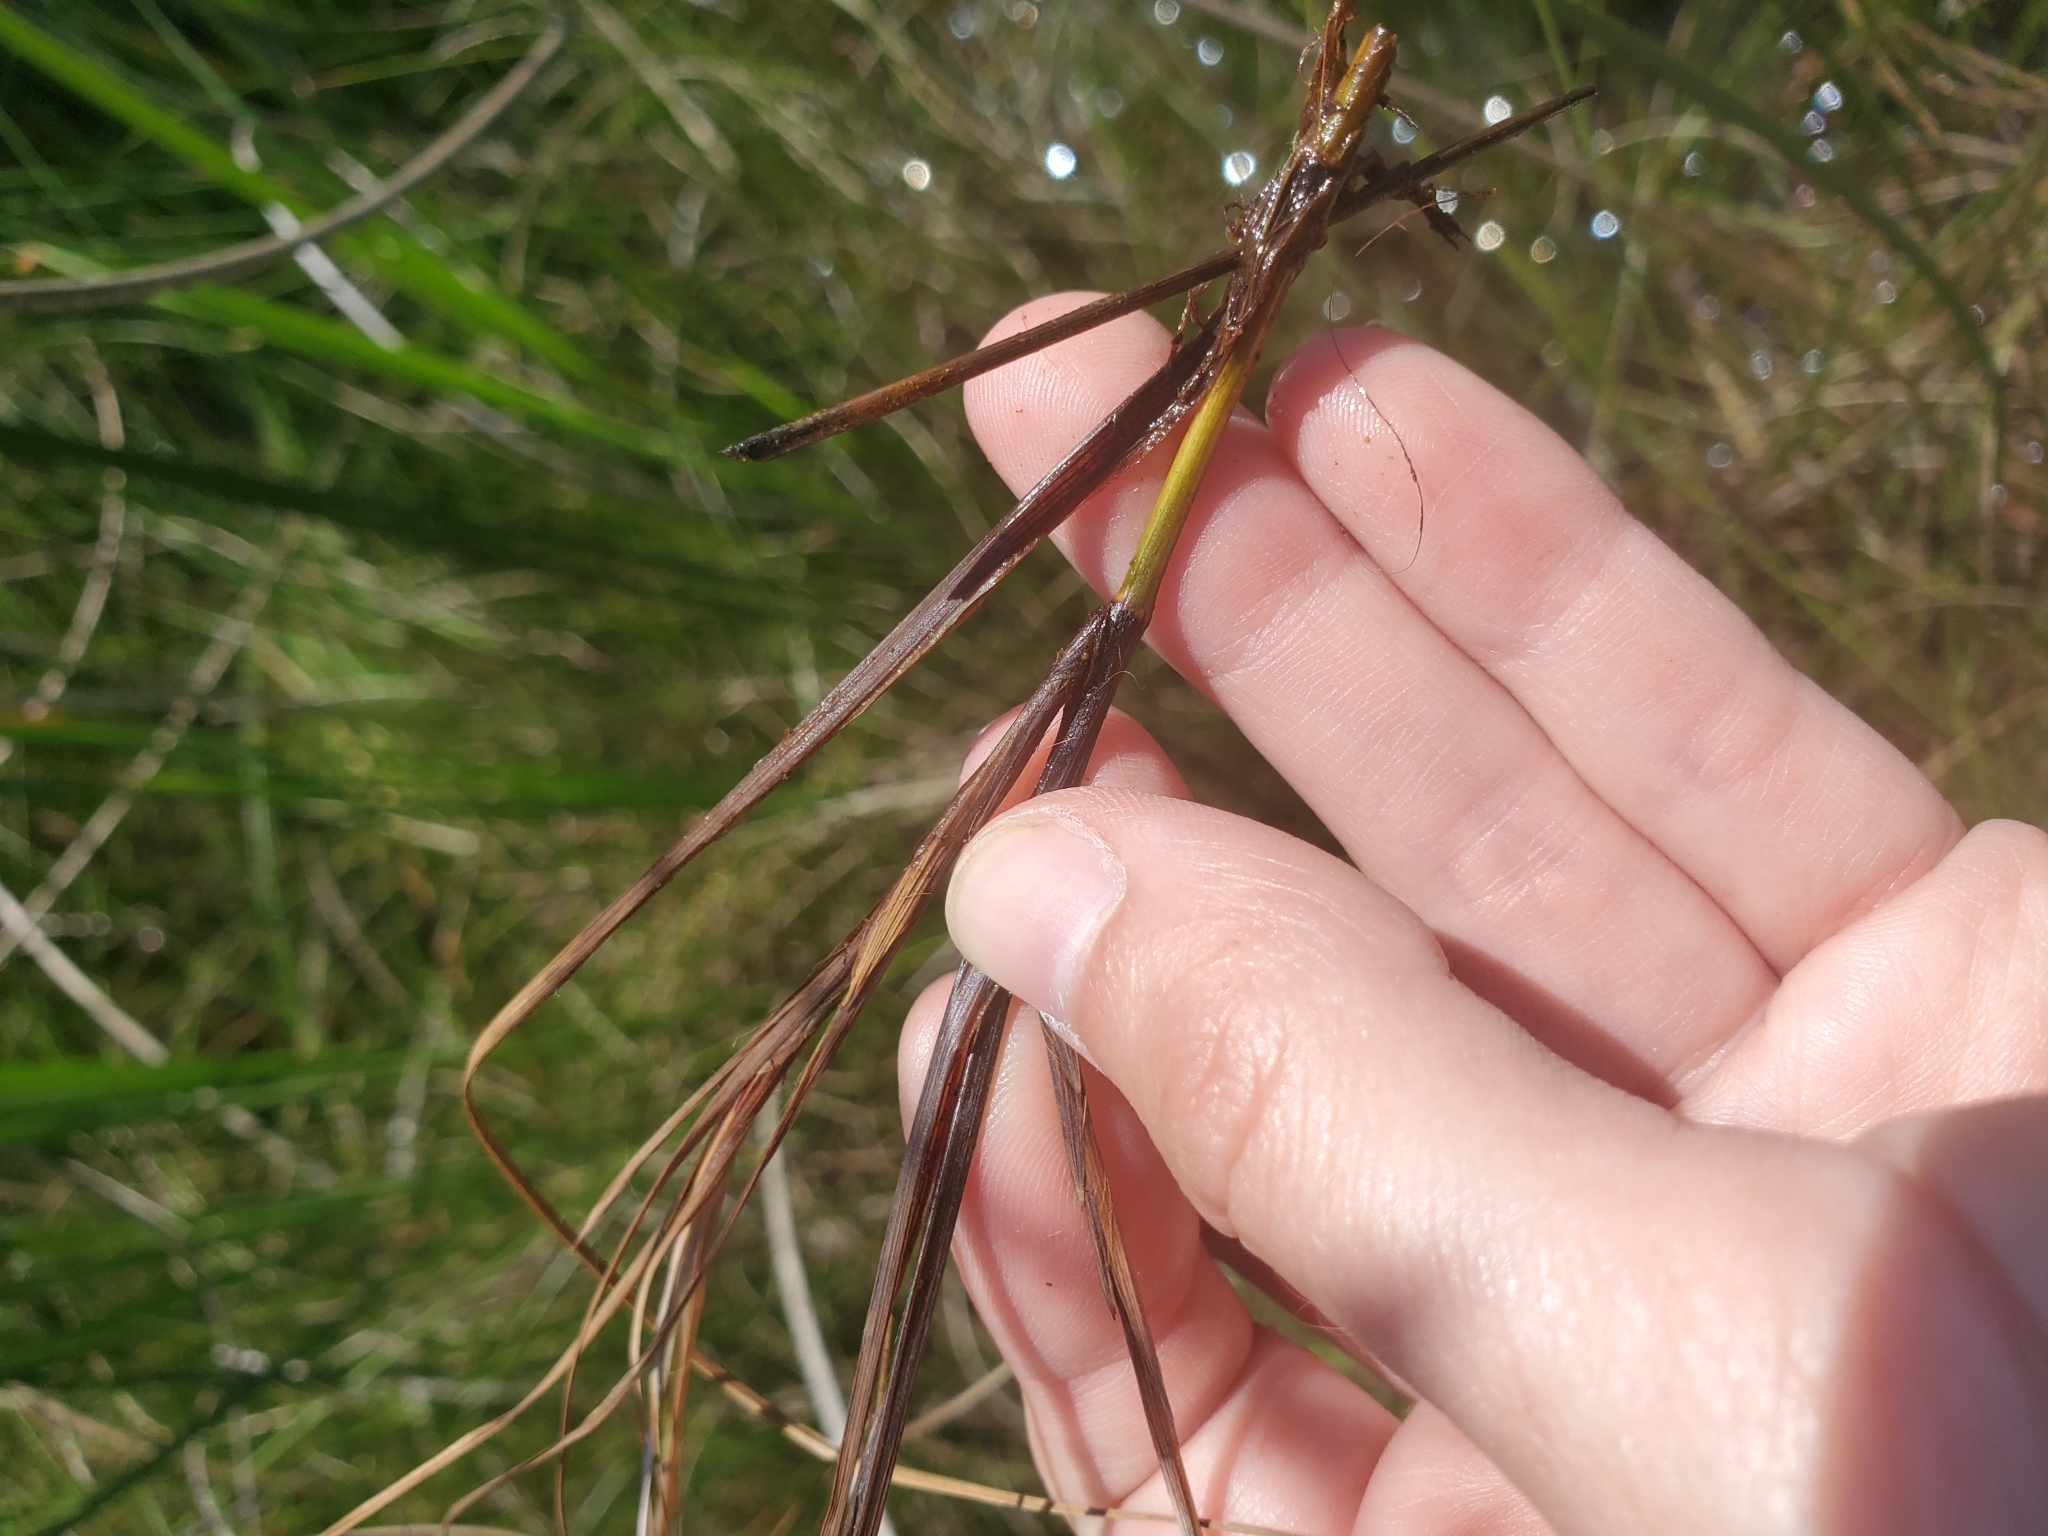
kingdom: Plantae
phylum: Tracheophyta
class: Liliopsida
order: Poales
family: Cyperaceae
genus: Carex
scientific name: Carex limosa
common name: Bog sedge
